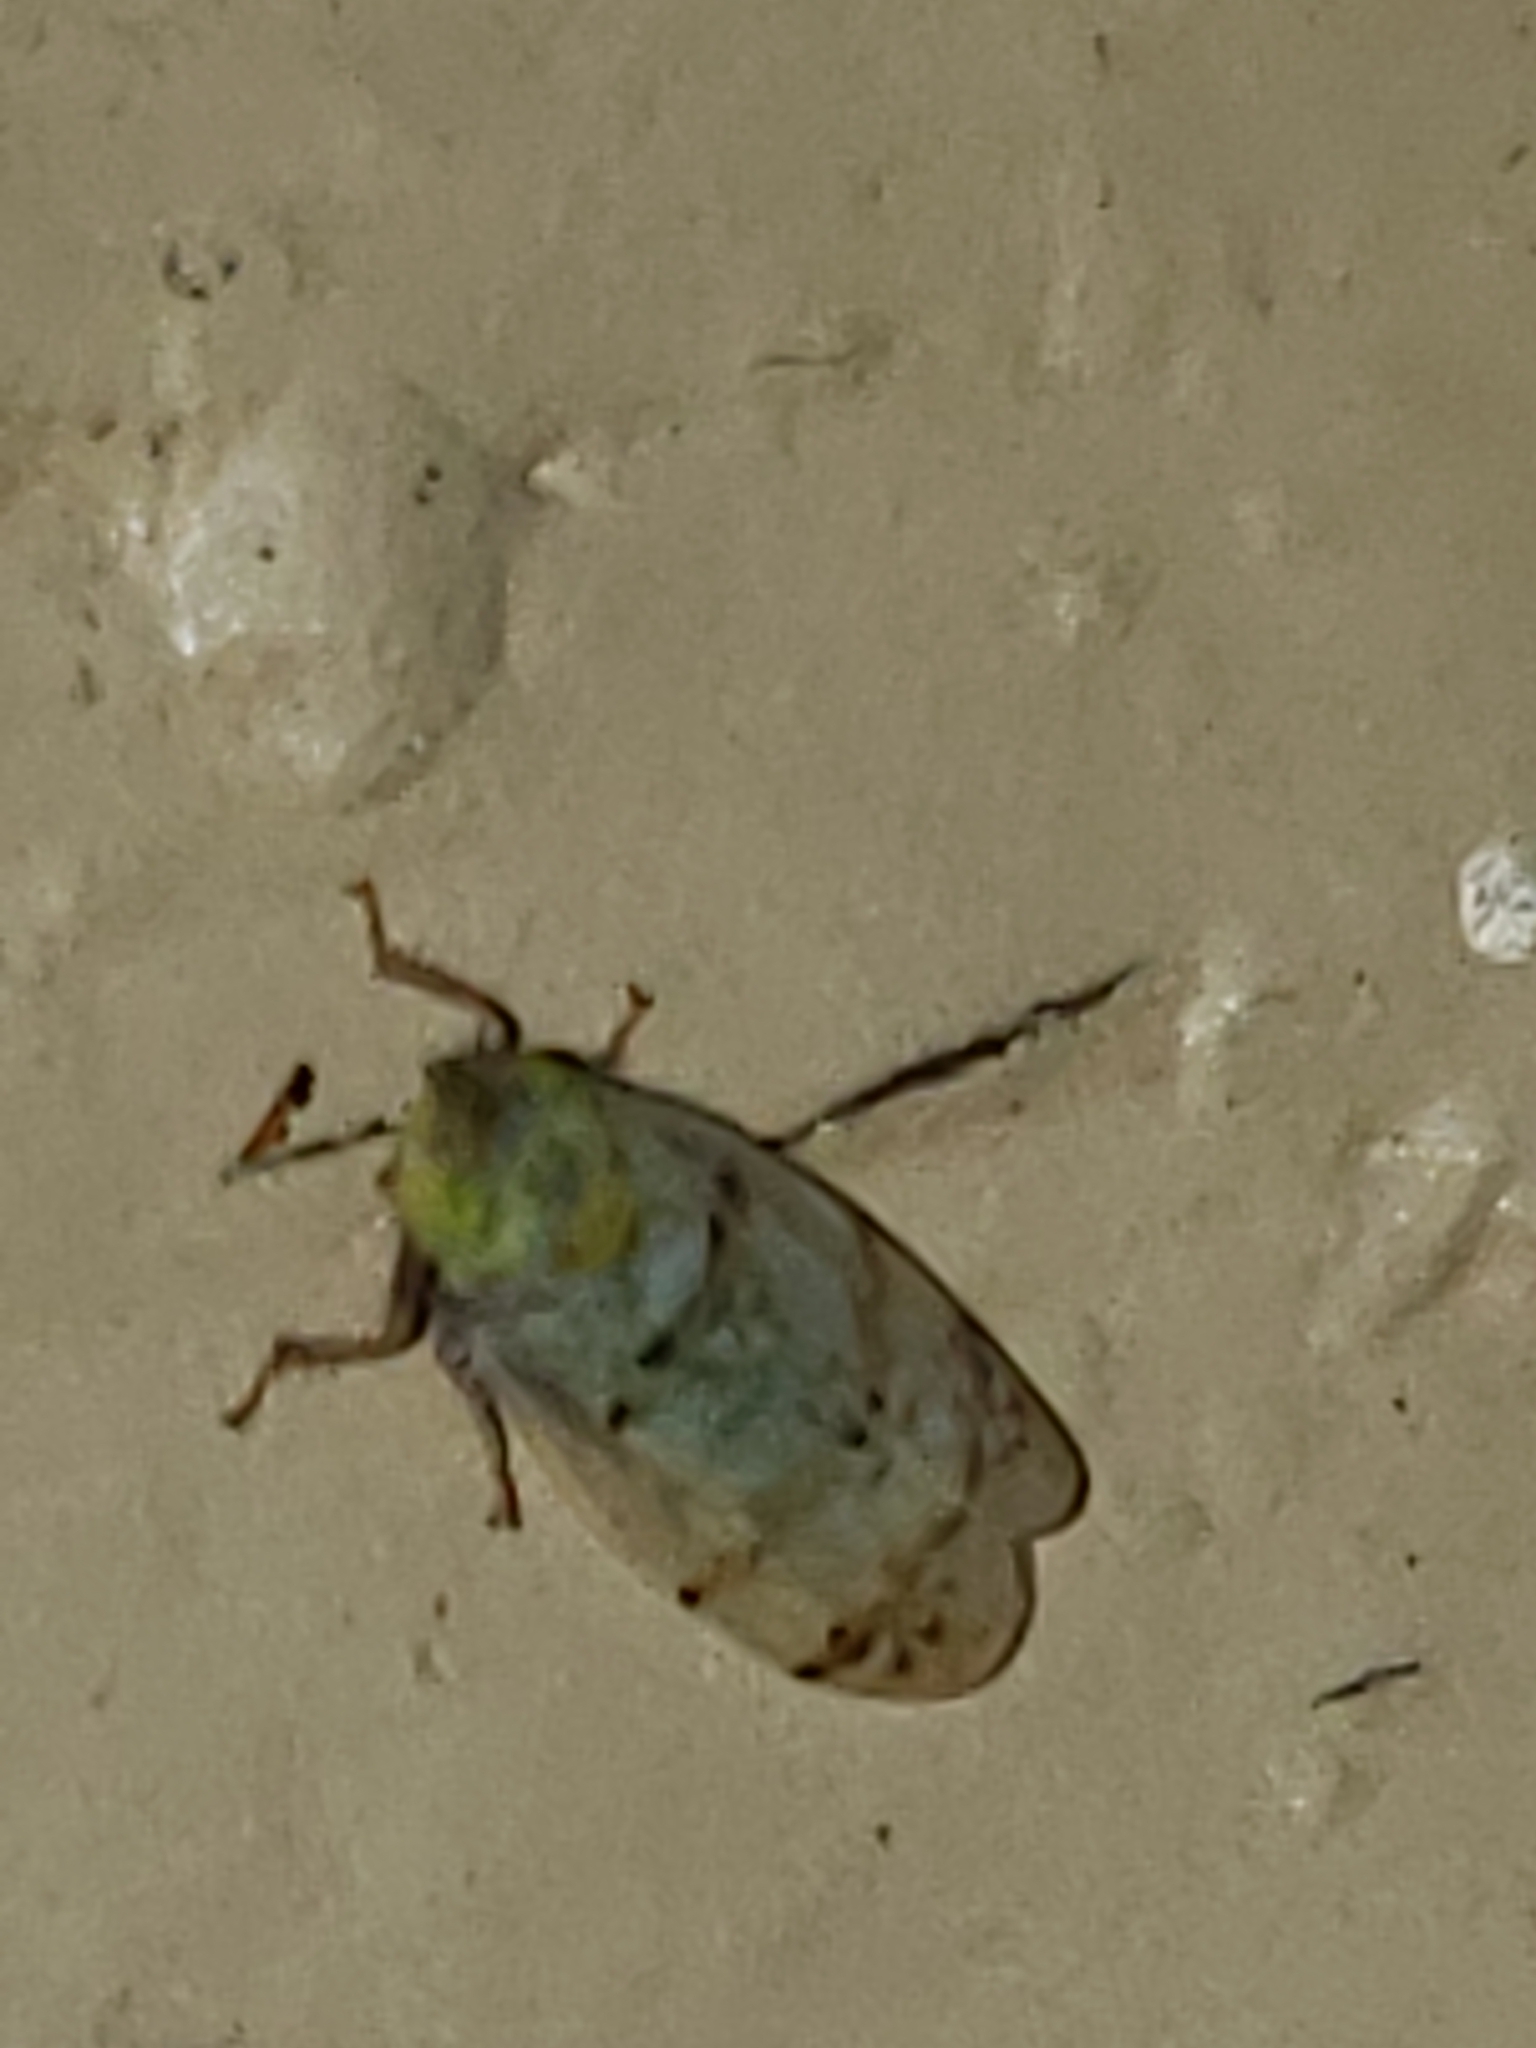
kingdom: Animalia
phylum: Arthropoda
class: Insecta
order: Hemiptera
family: Cicadellidae
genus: Japananus
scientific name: Japananus hyalinus
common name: The japanese maple leafhopper
